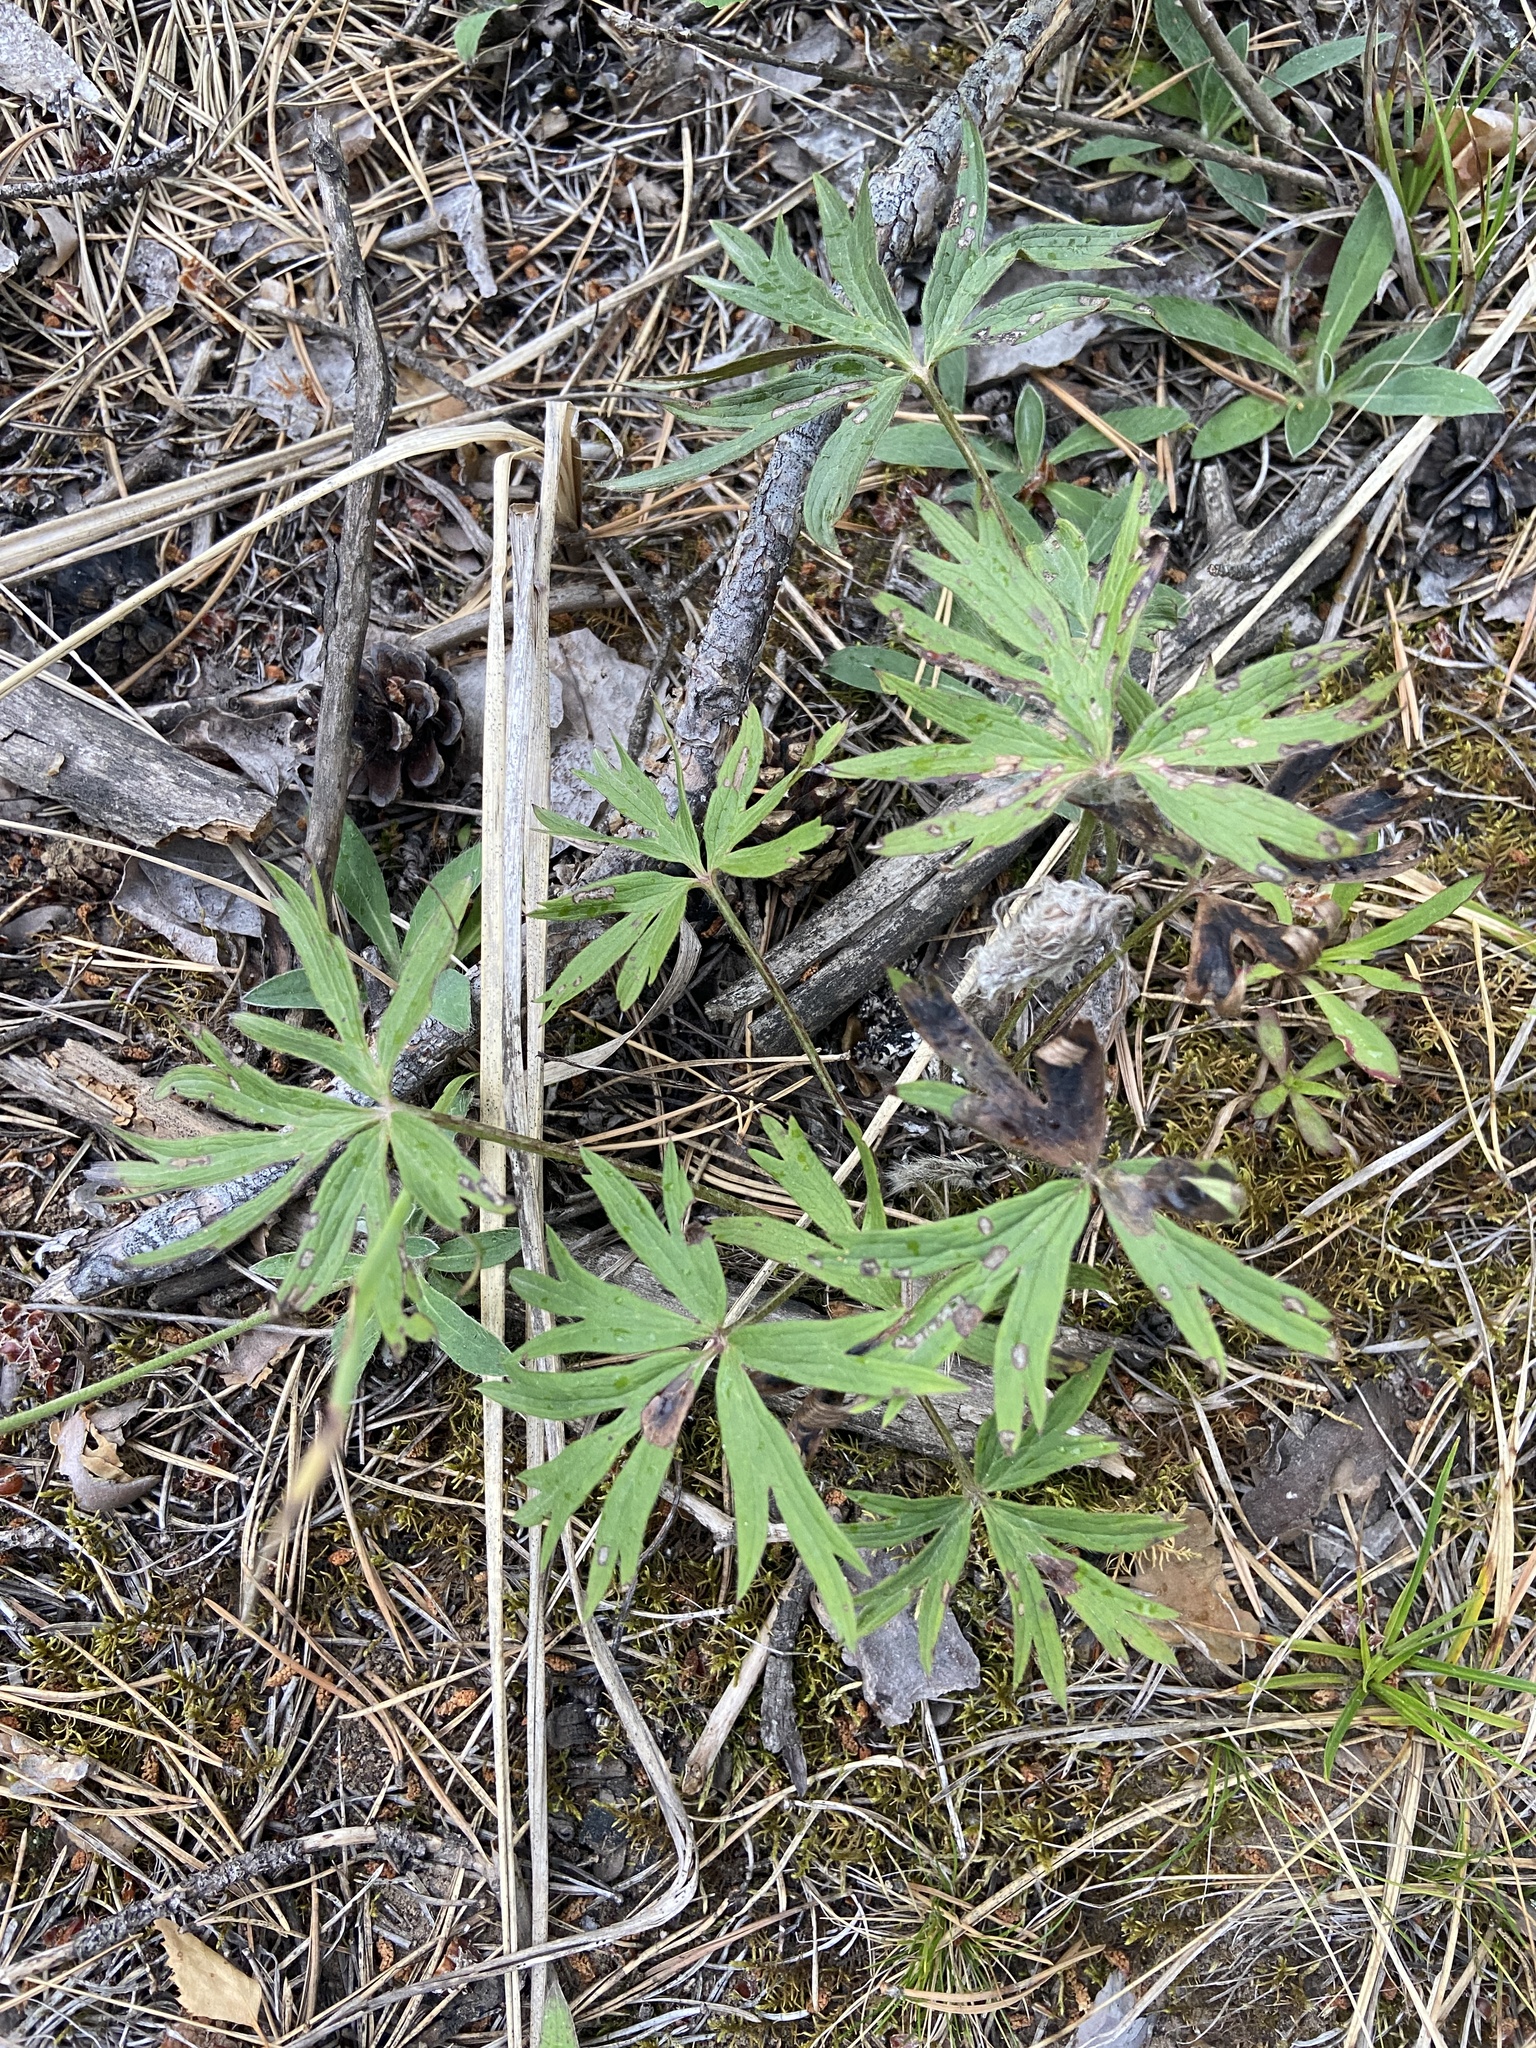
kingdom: Plantae
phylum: Tracheophyta
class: Magnoliopsida
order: Ranunculales
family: Ranunculaceae
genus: Pulsatilla
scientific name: Pulsatilla patens
